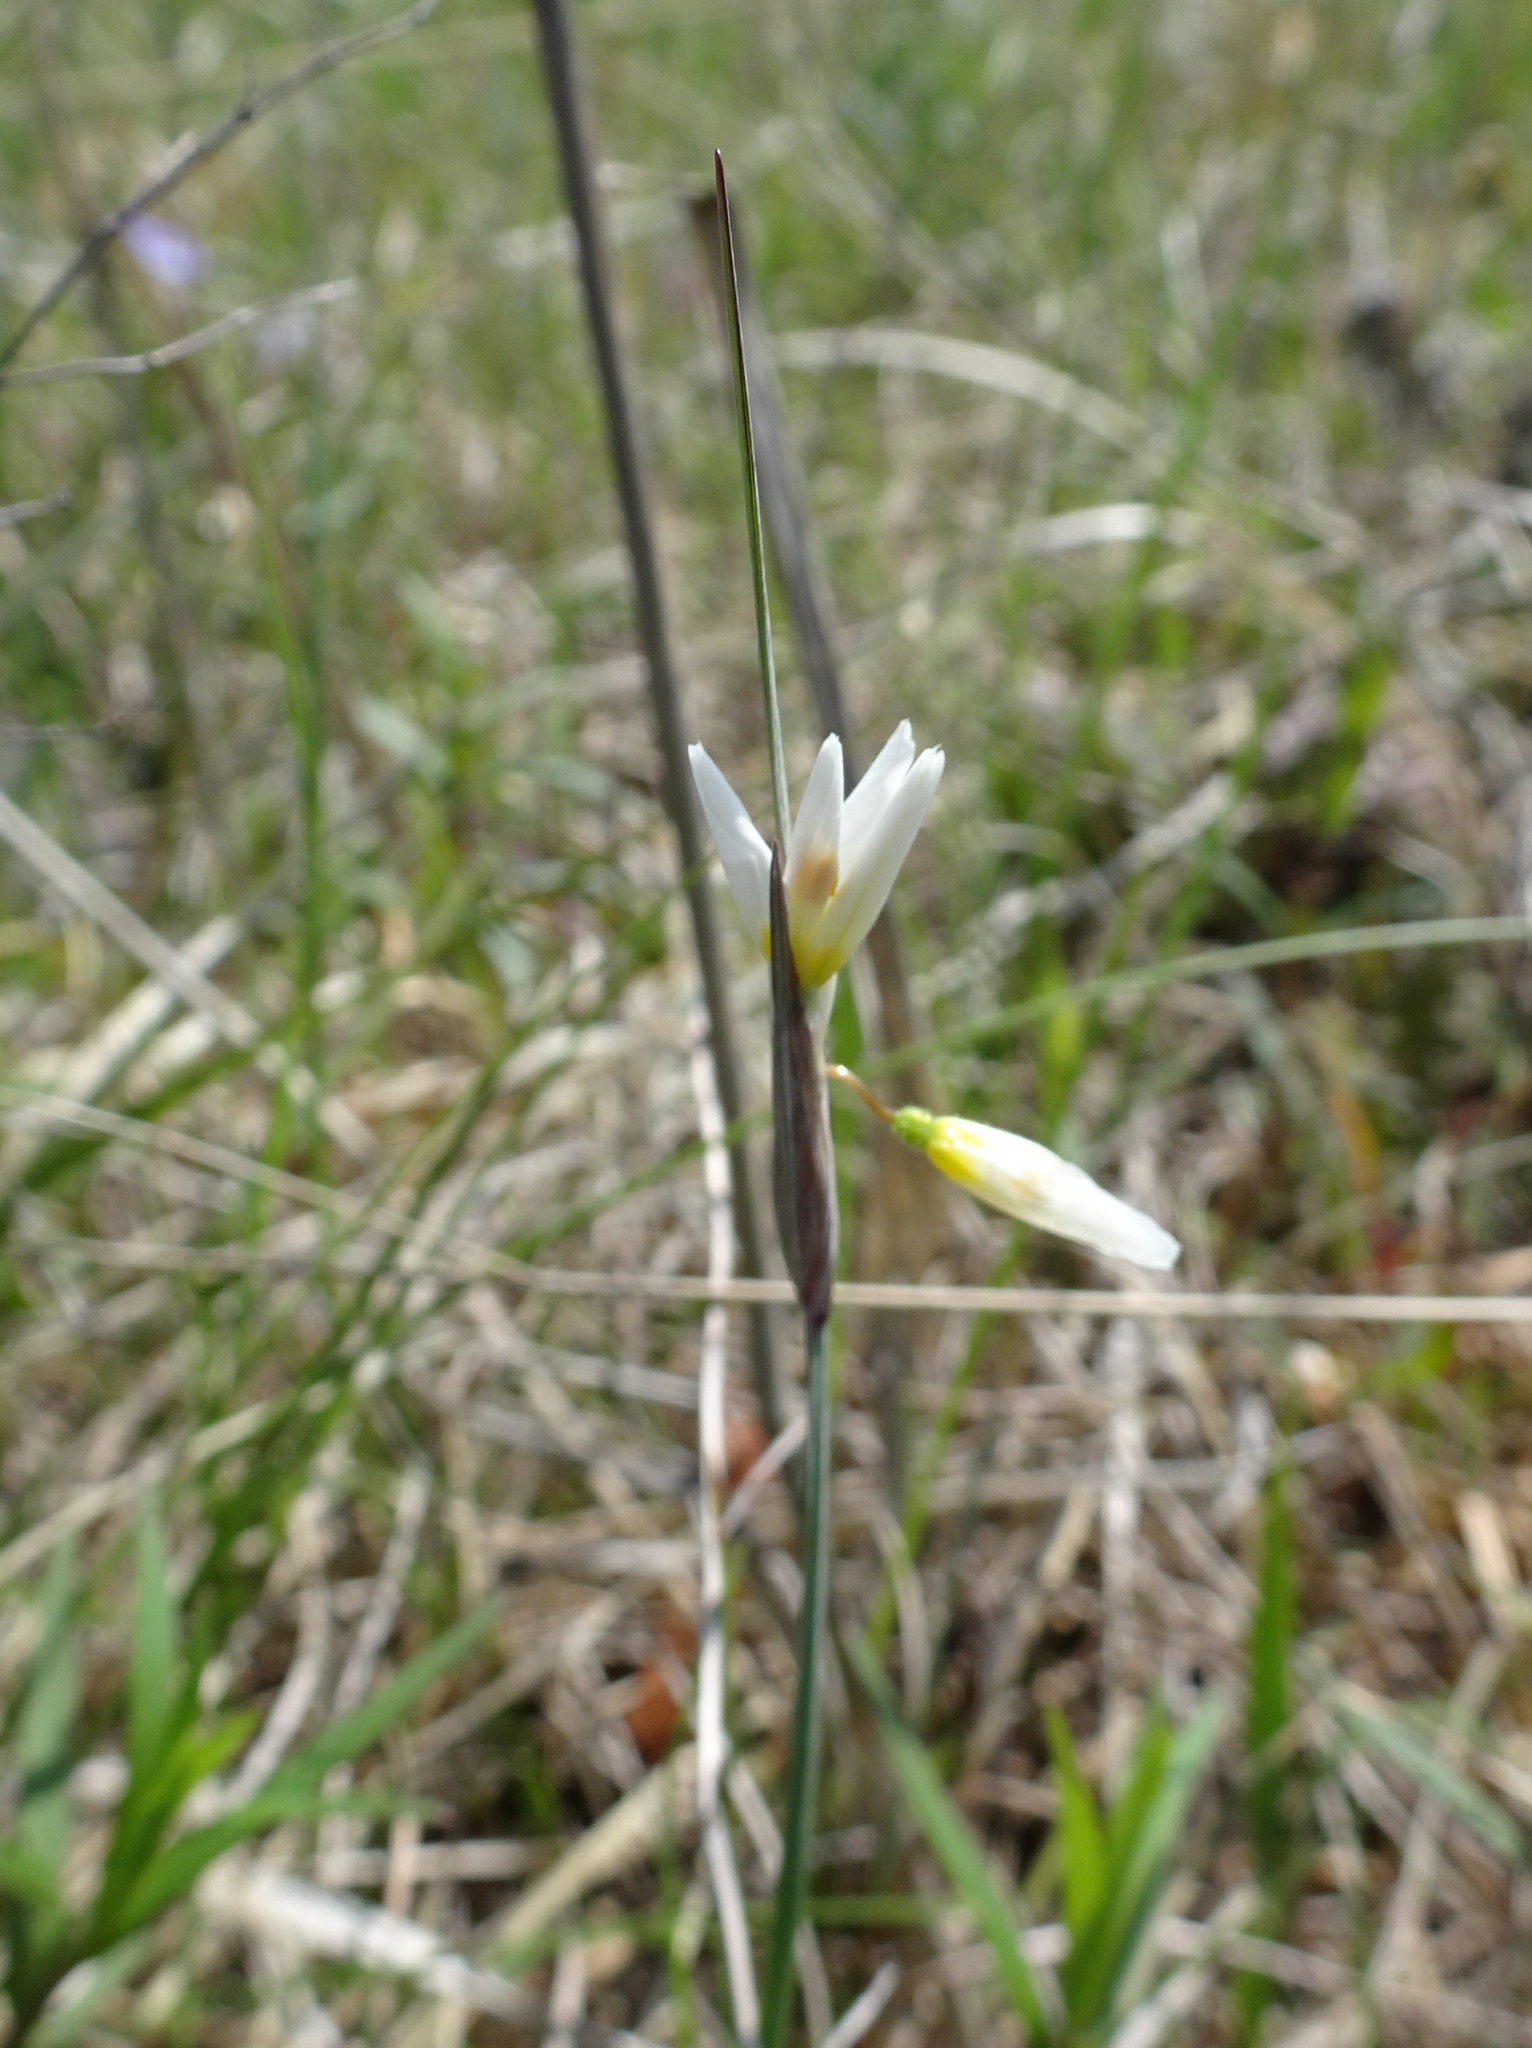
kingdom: Plantae
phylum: Tracheophyta
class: Liliopsida
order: Asparagales
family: Iridaceae
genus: Sisyrinchium
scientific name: Sisyrinchium campestre
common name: Prairie blue-eyed-grass
